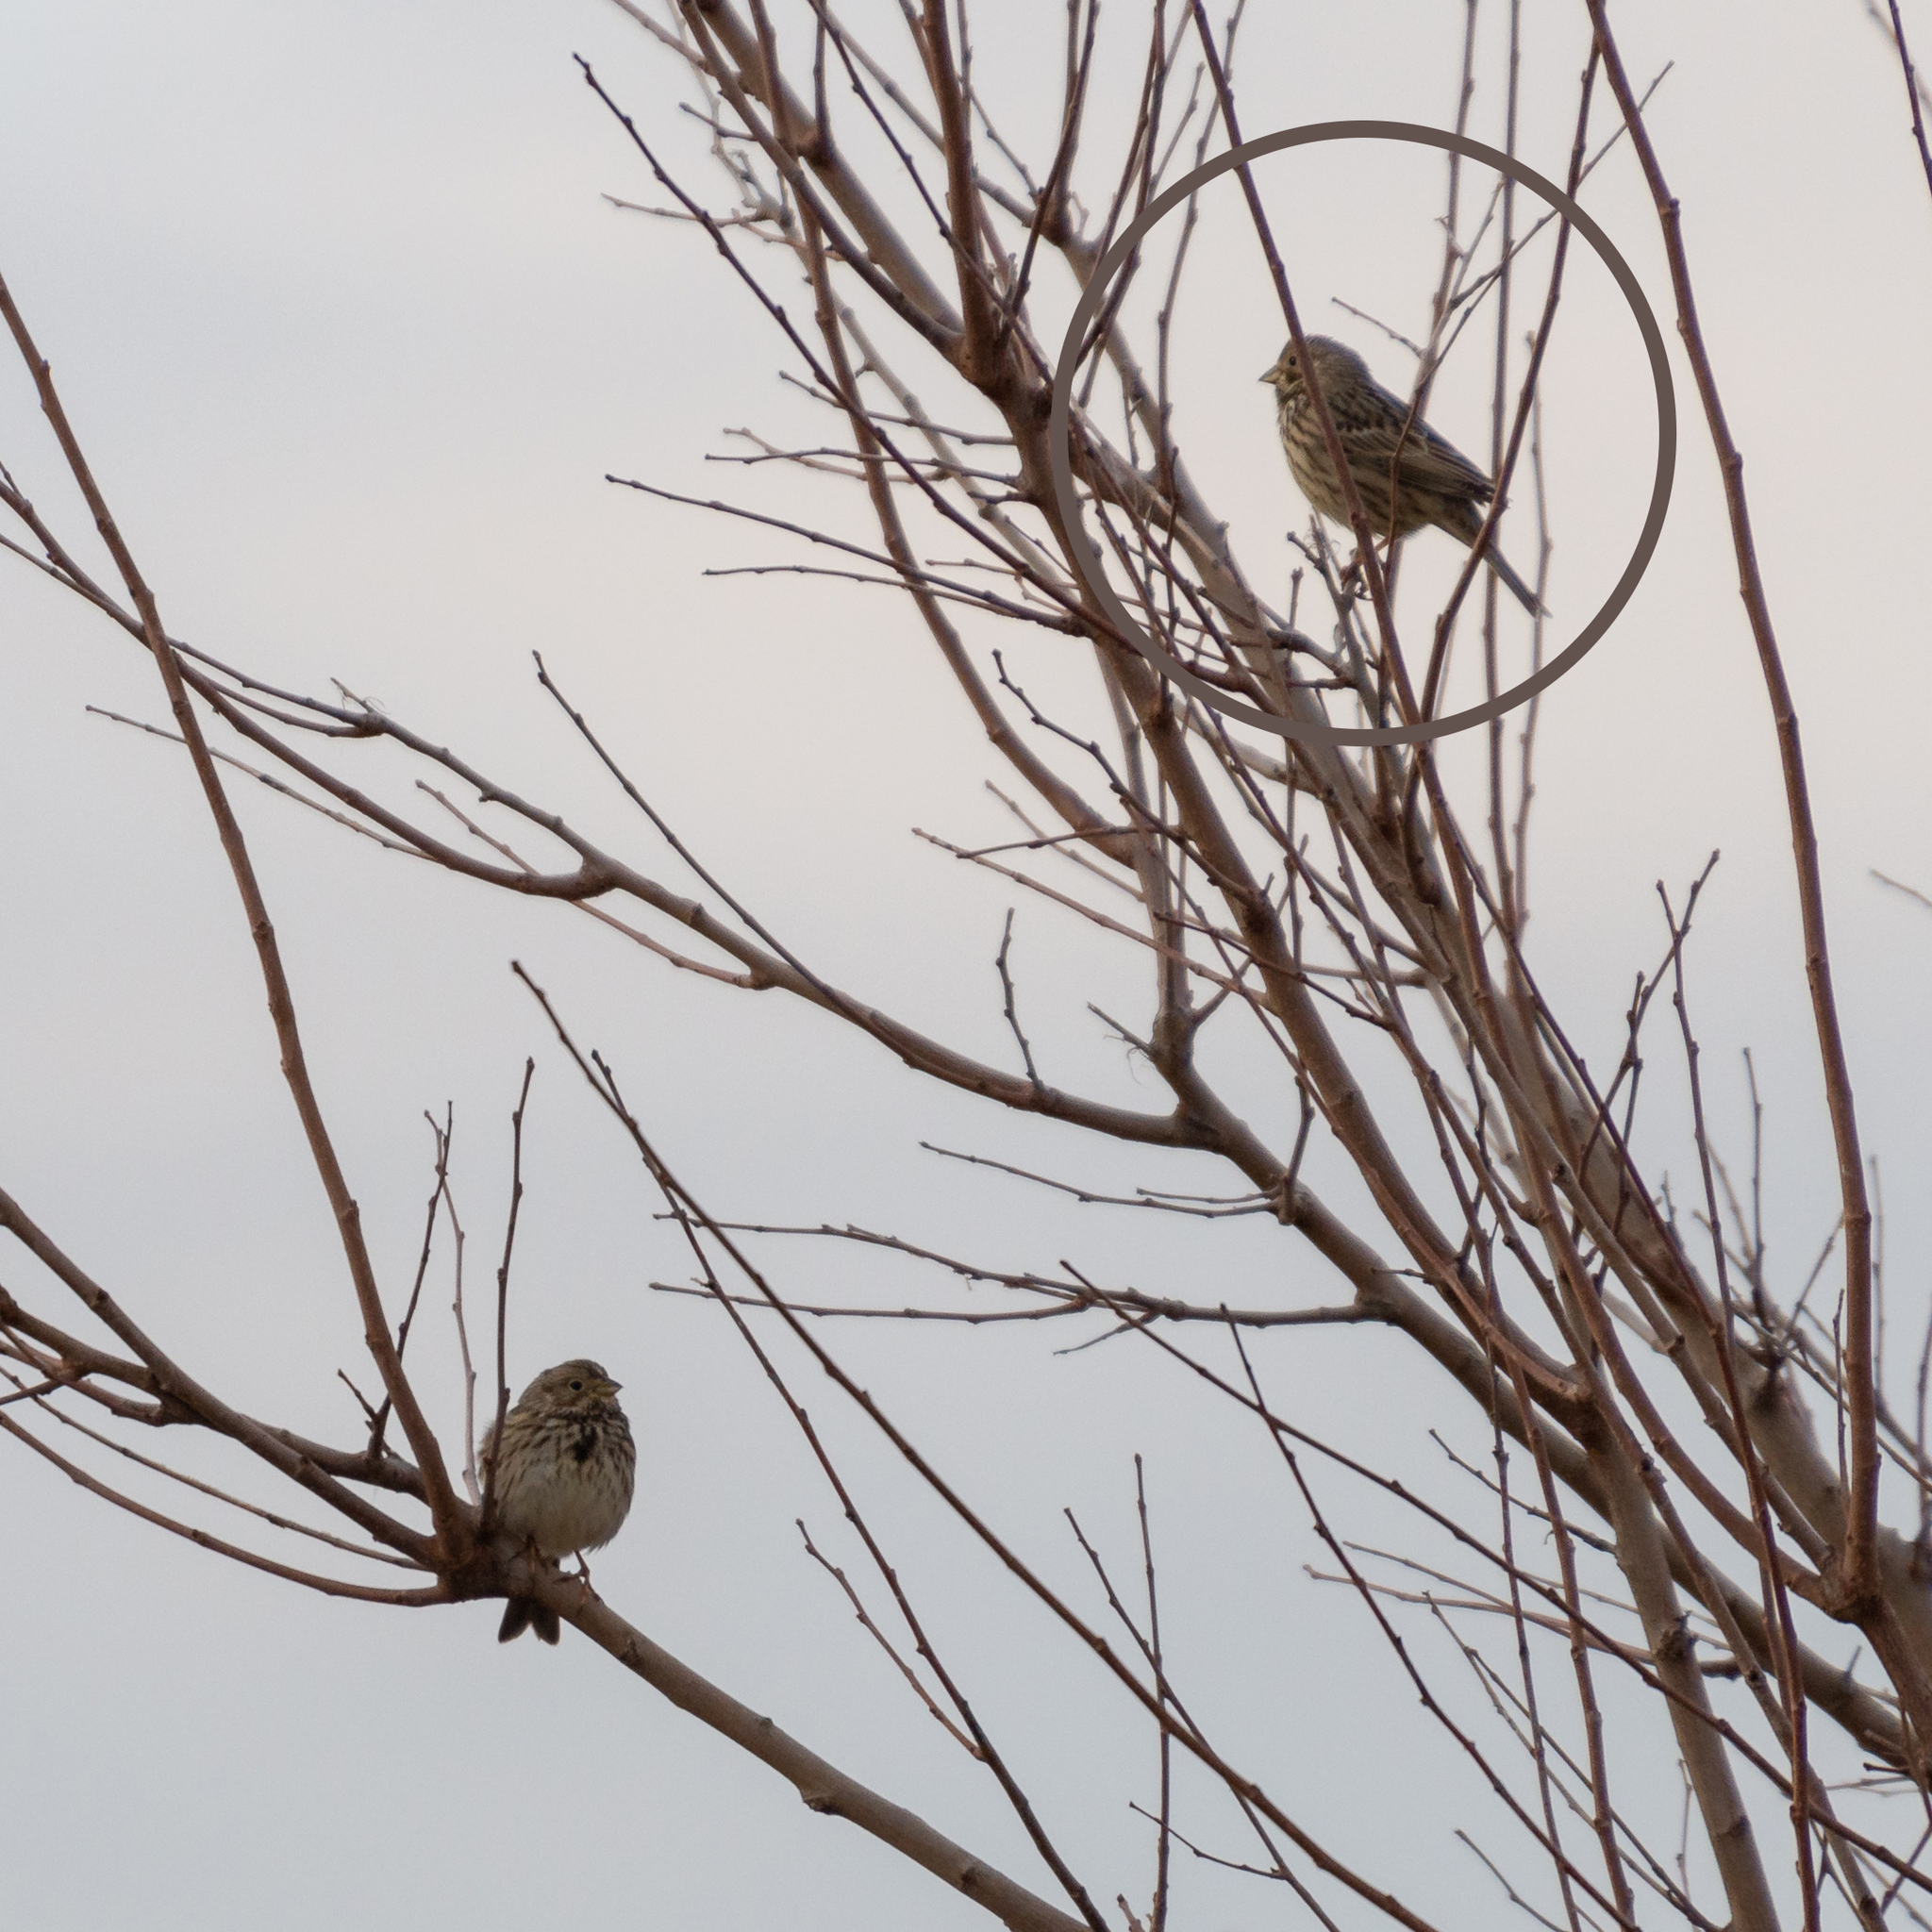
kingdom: Animalia
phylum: Chordata
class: Aves
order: Passeriformes
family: Emberizidae
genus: Emberiza
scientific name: Emberiza calandra
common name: Corn bunting
